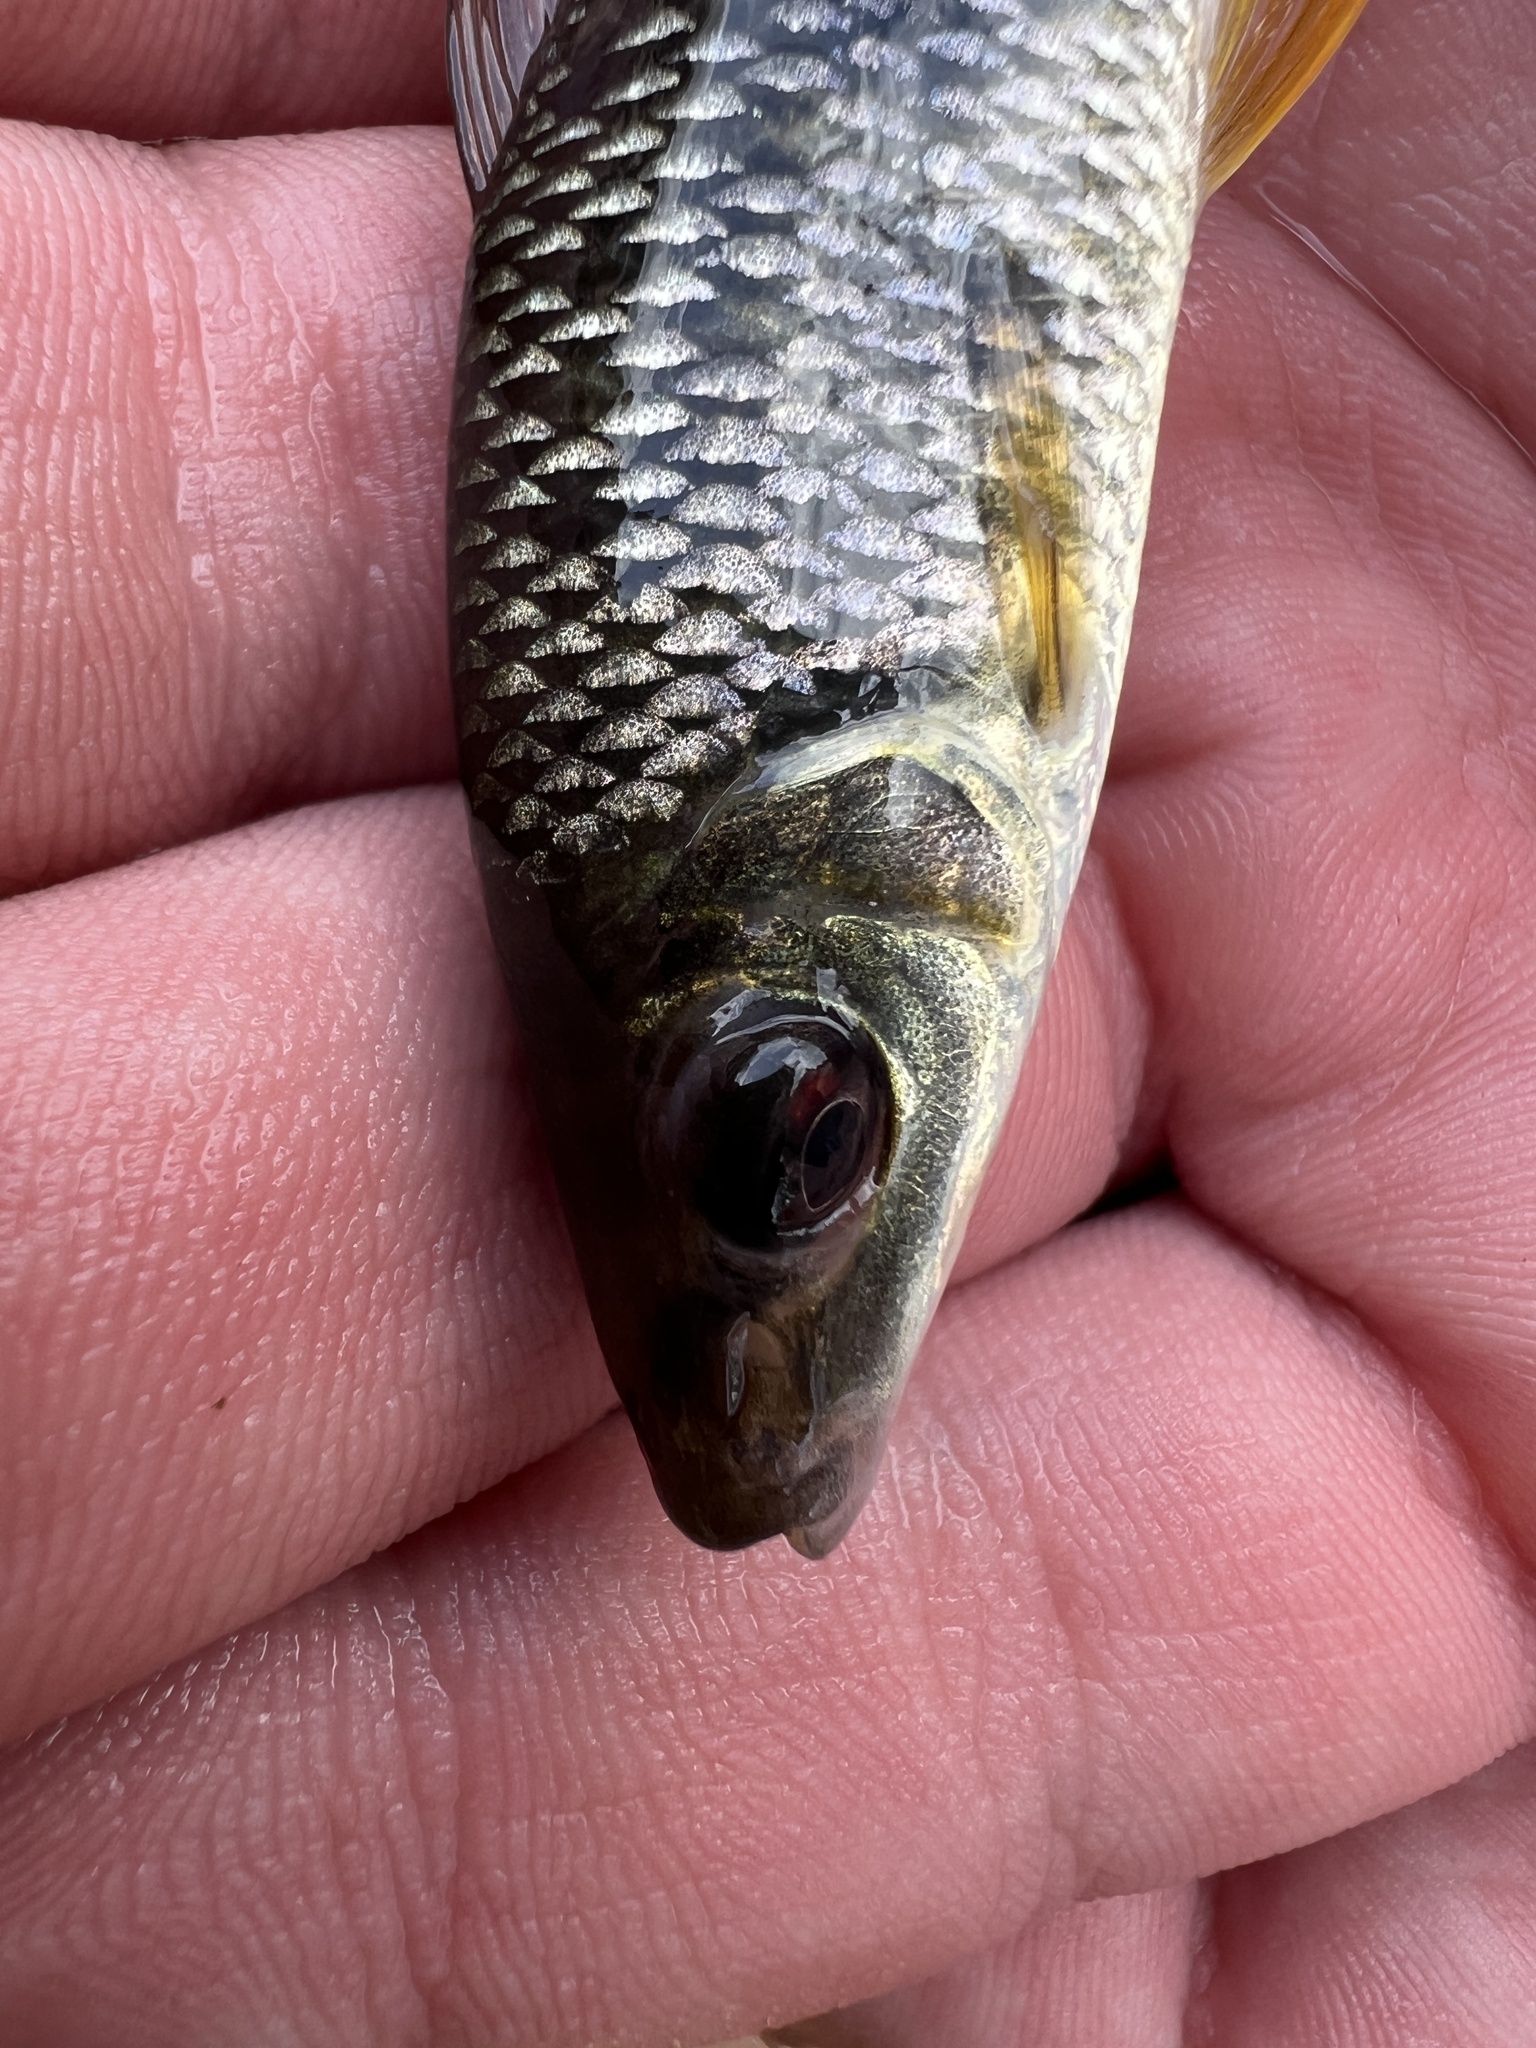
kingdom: Animalia
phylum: Chordata
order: Characiformes
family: Anostomidae
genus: Leporinus
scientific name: Leporinus acutidens
